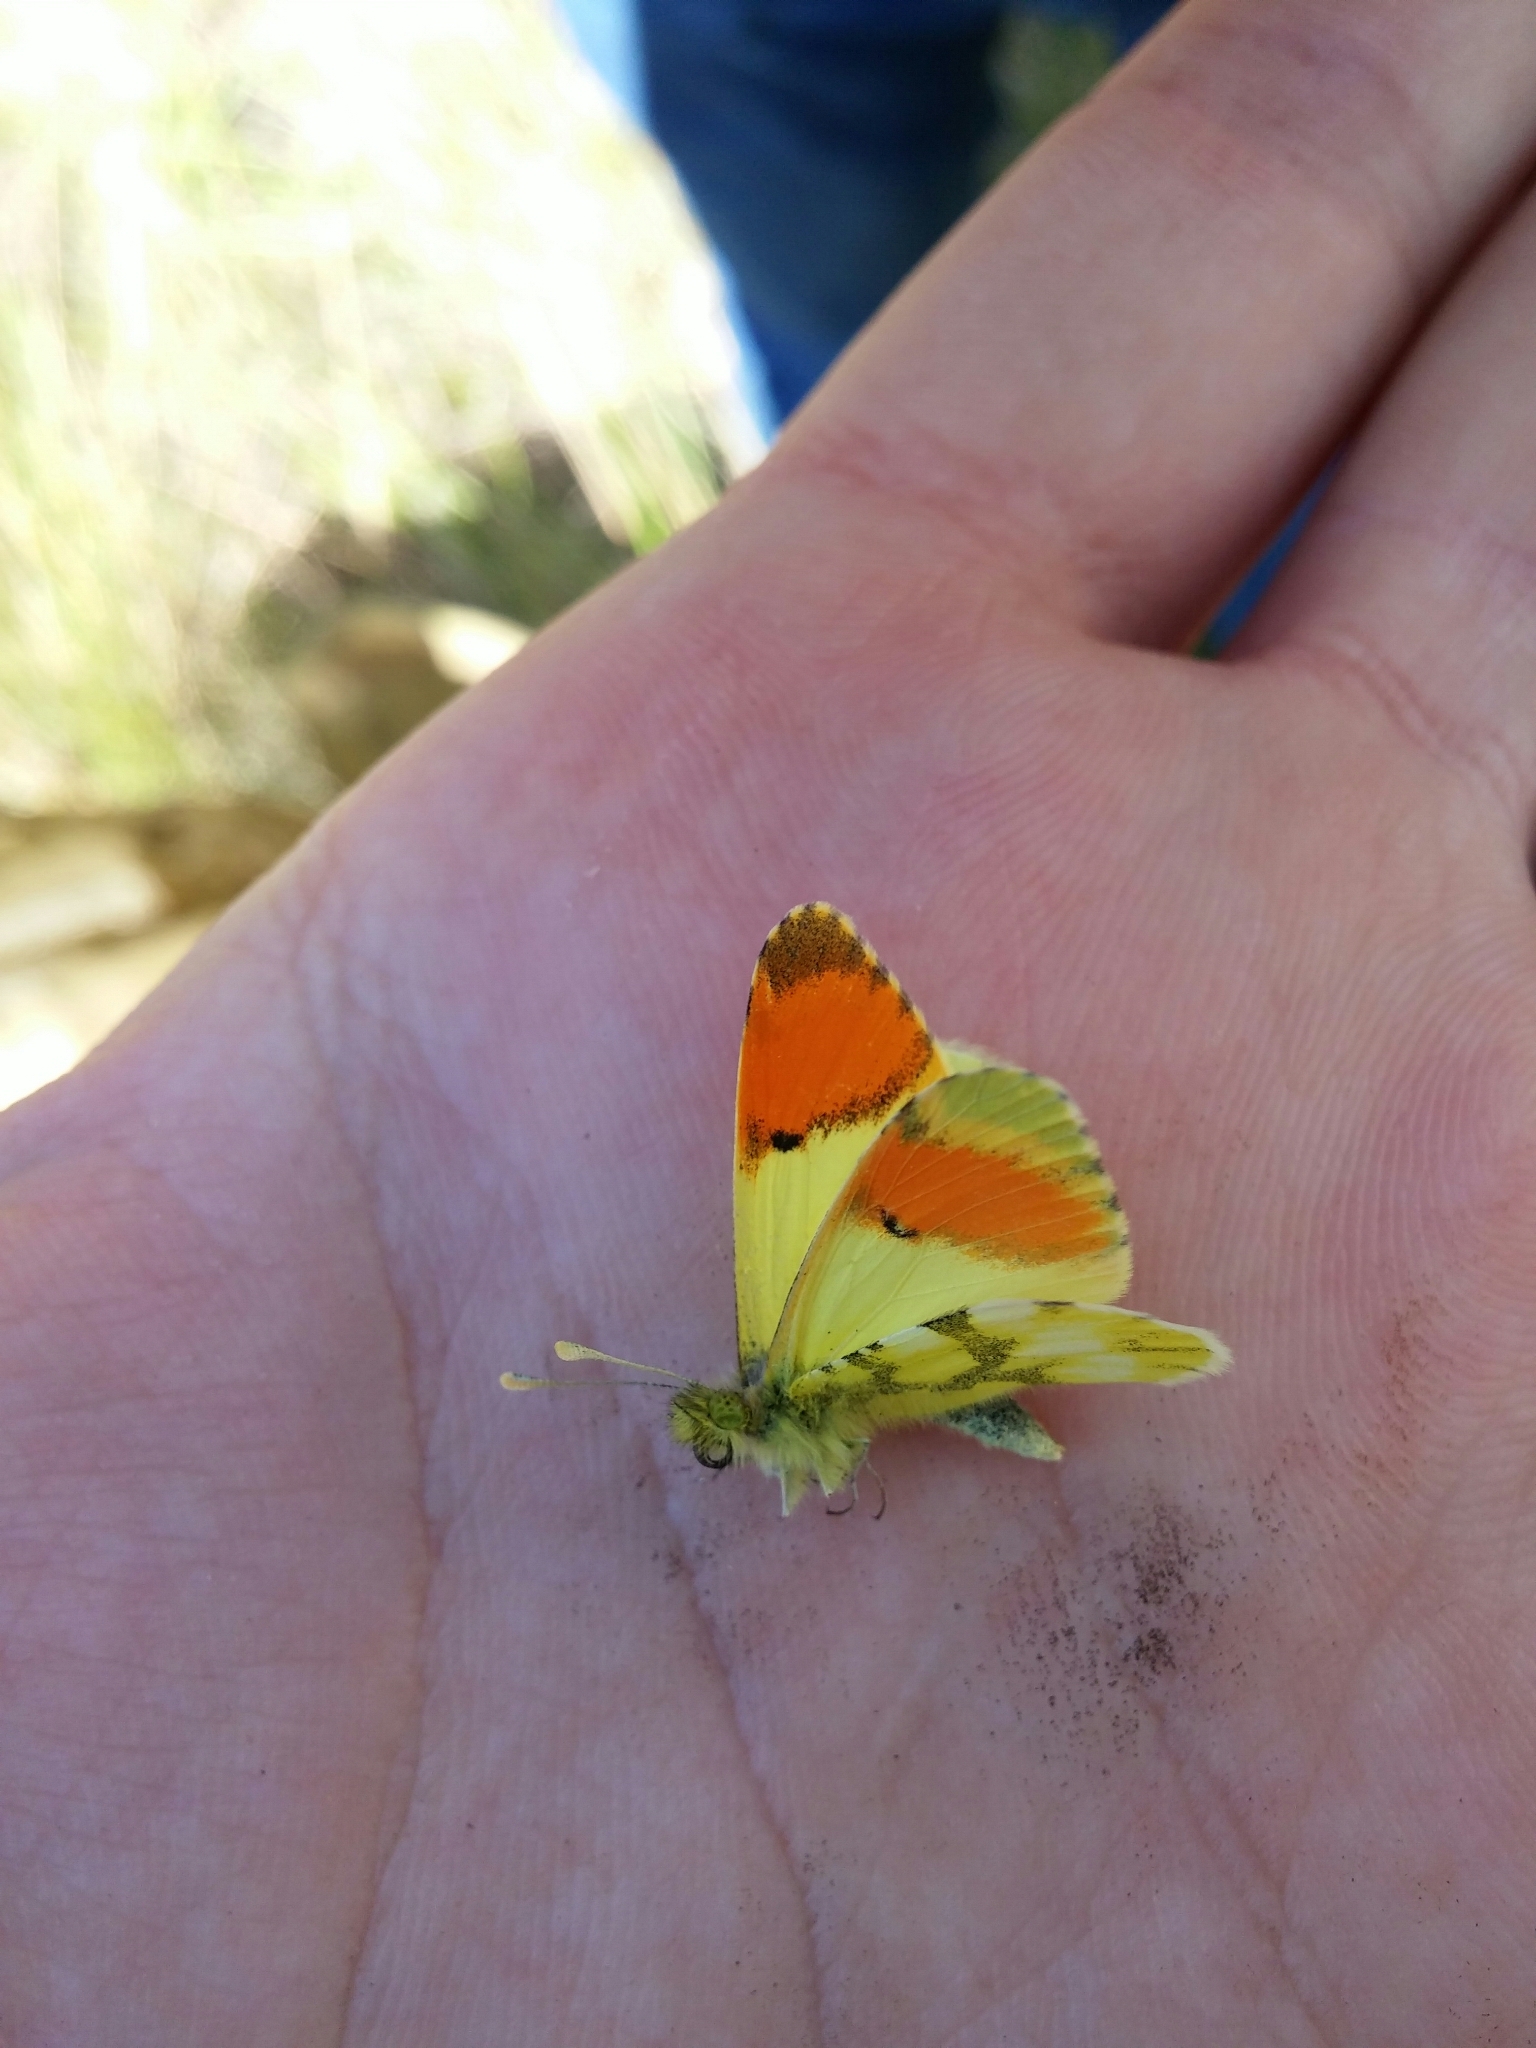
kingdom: Animalia
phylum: Arthropoda
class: Insecta
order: Lepidoptera
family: Pieridae
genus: Anthocharis
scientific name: Anthocharis euphenoides
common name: Provence orange-tip
